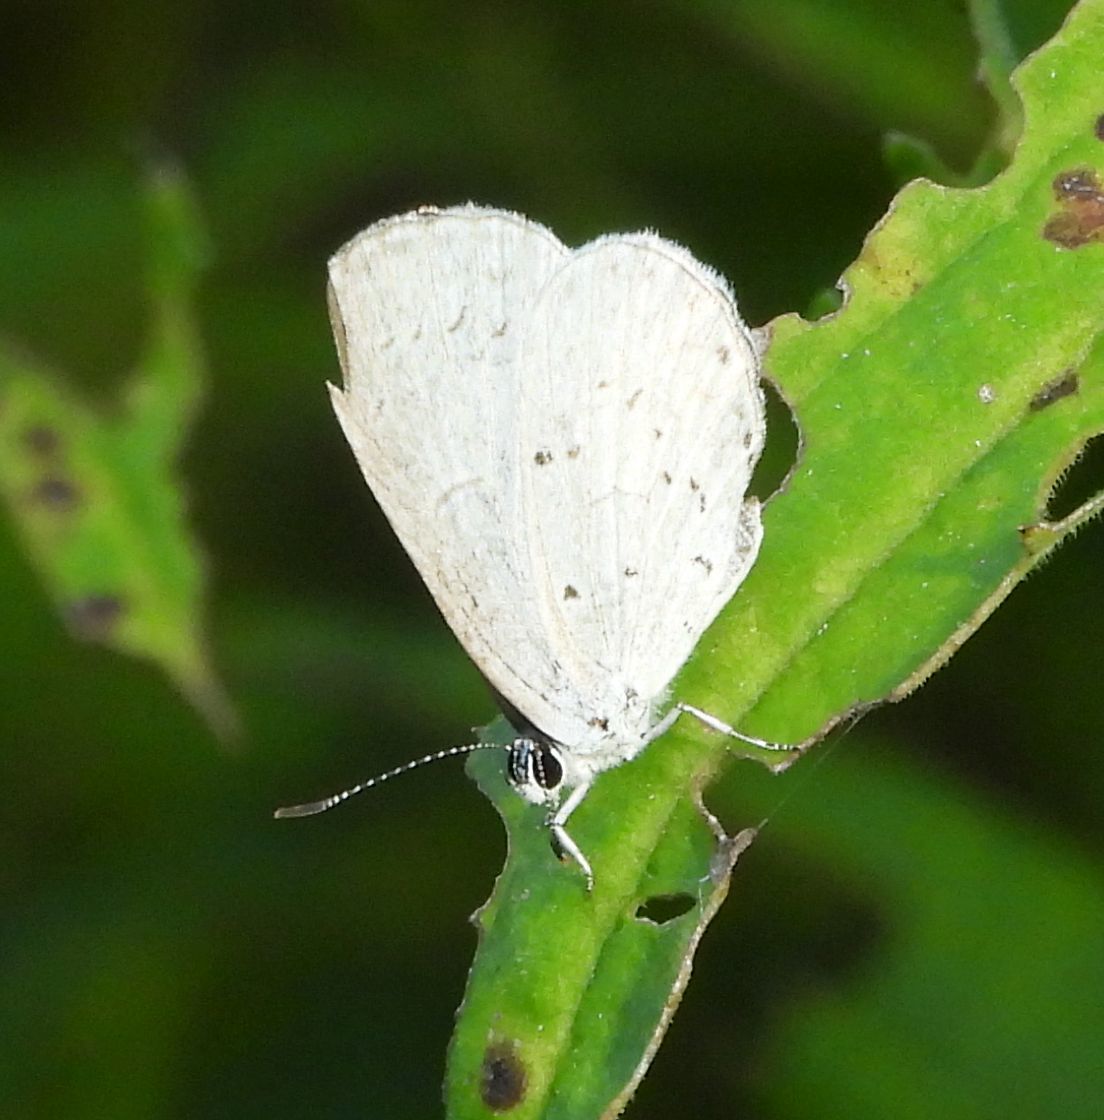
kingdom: Animalia
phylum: Arthropoda
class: Insecta
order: Lepidoptera
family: Lycaenidae
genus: Celastrina
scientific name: Celastrina
